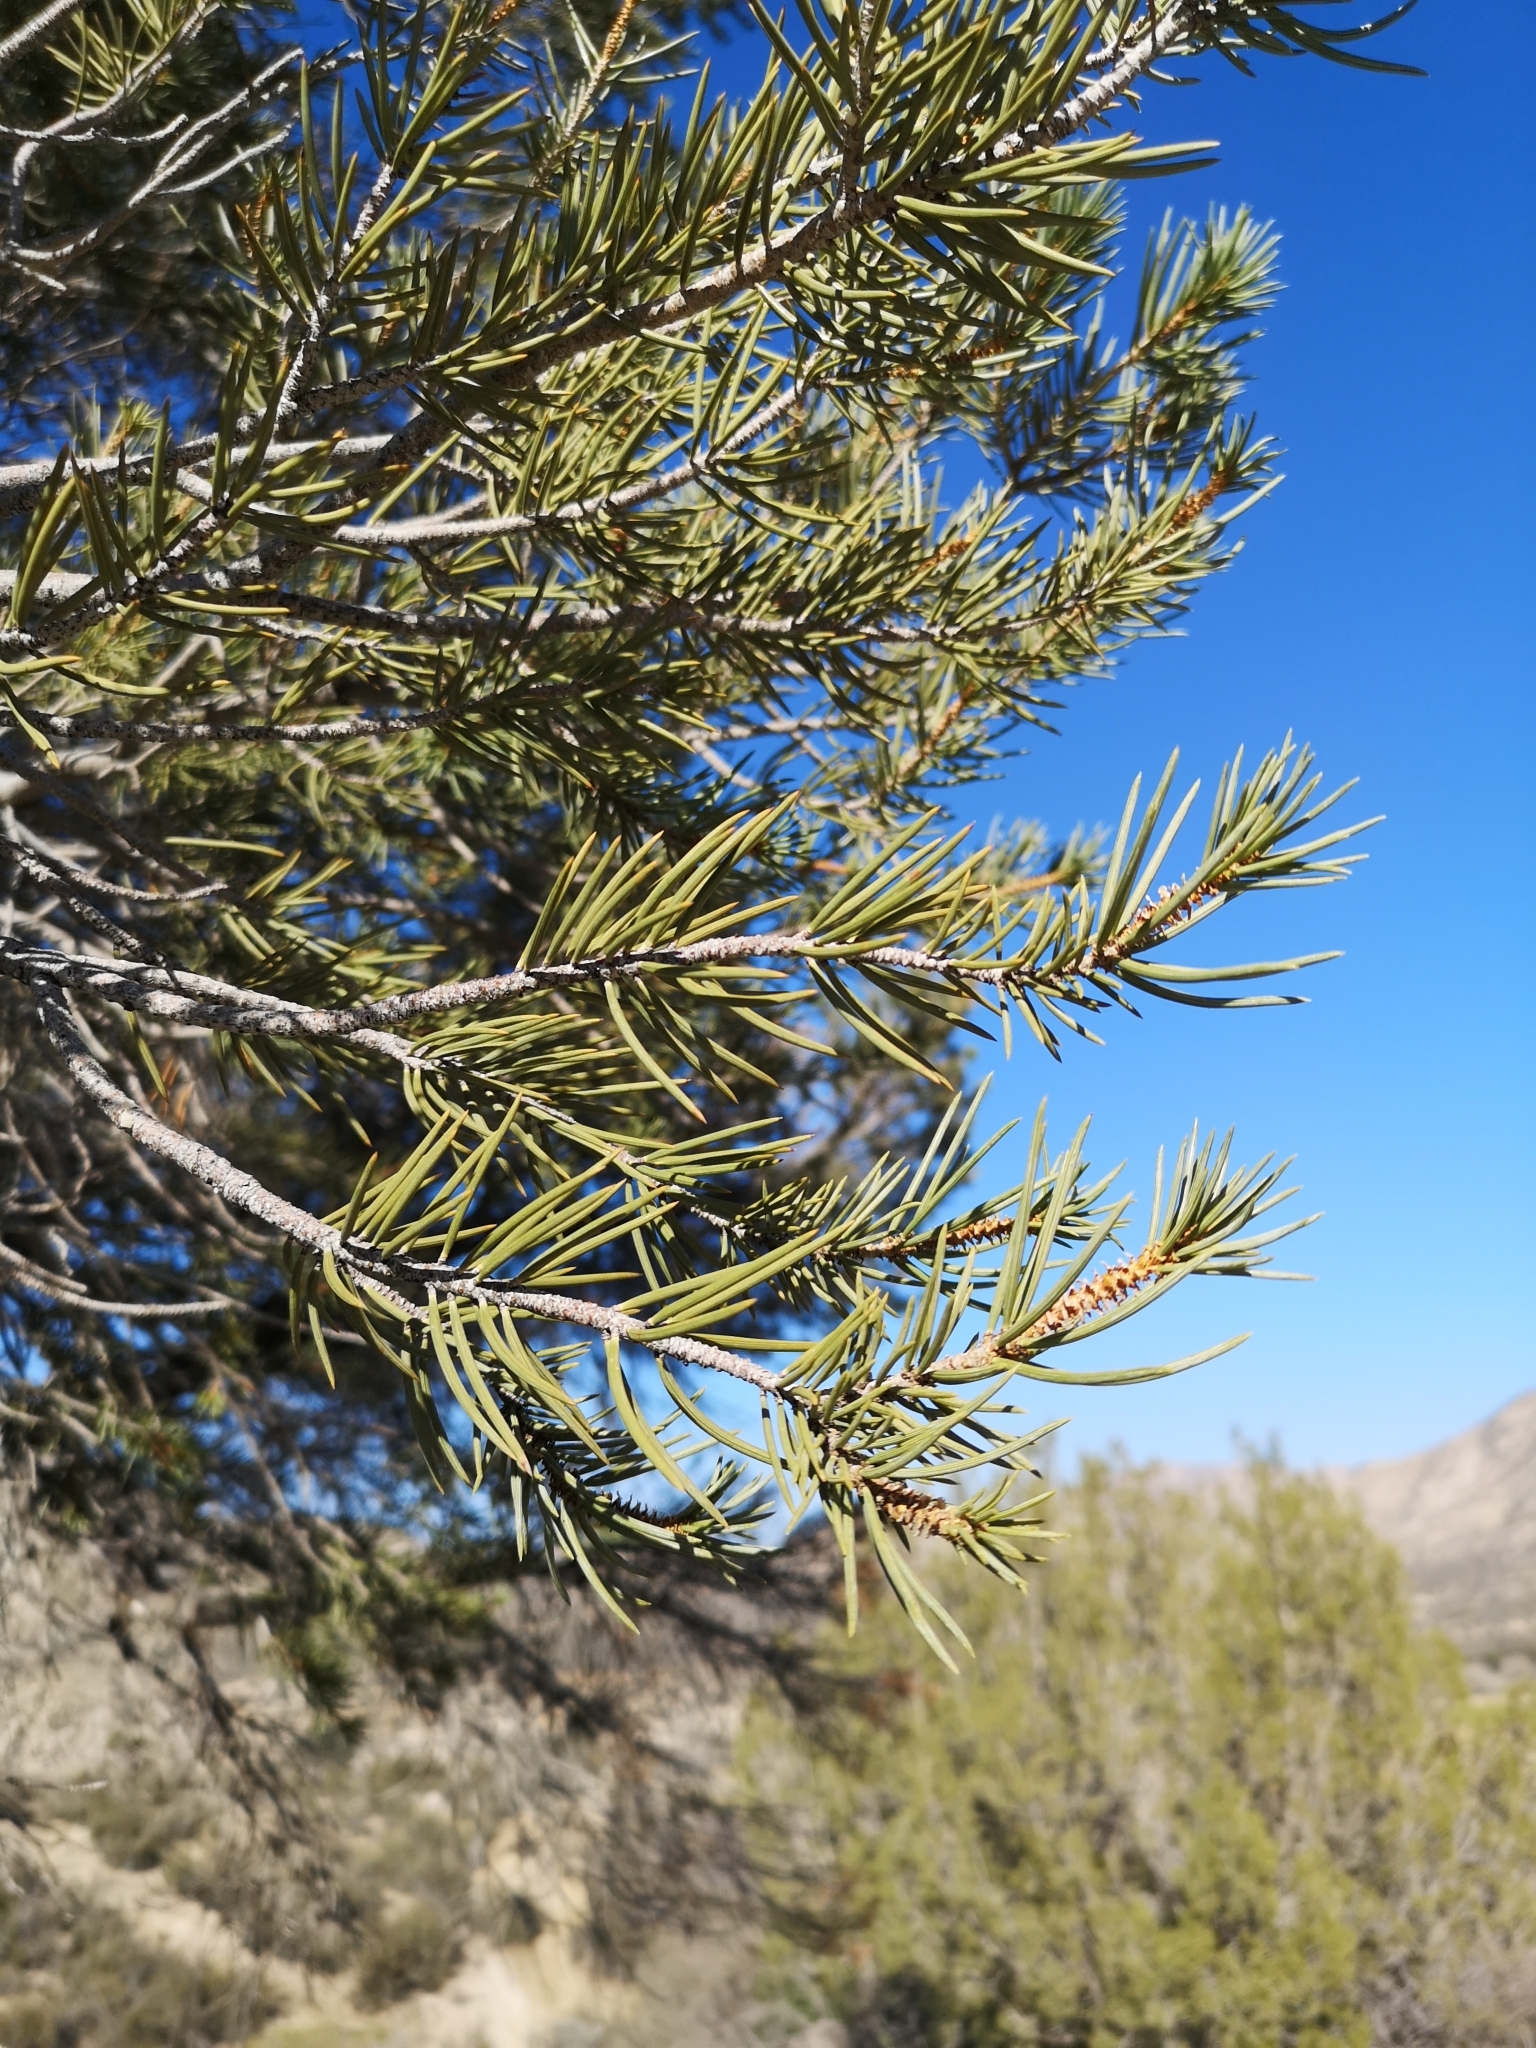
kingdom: Plantae
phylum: Tracheophyta
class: Pinopsida
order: Pinales
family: Pinaceae
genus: Pinus
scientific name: Pinus monophylla
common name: One-leaved nut pine
